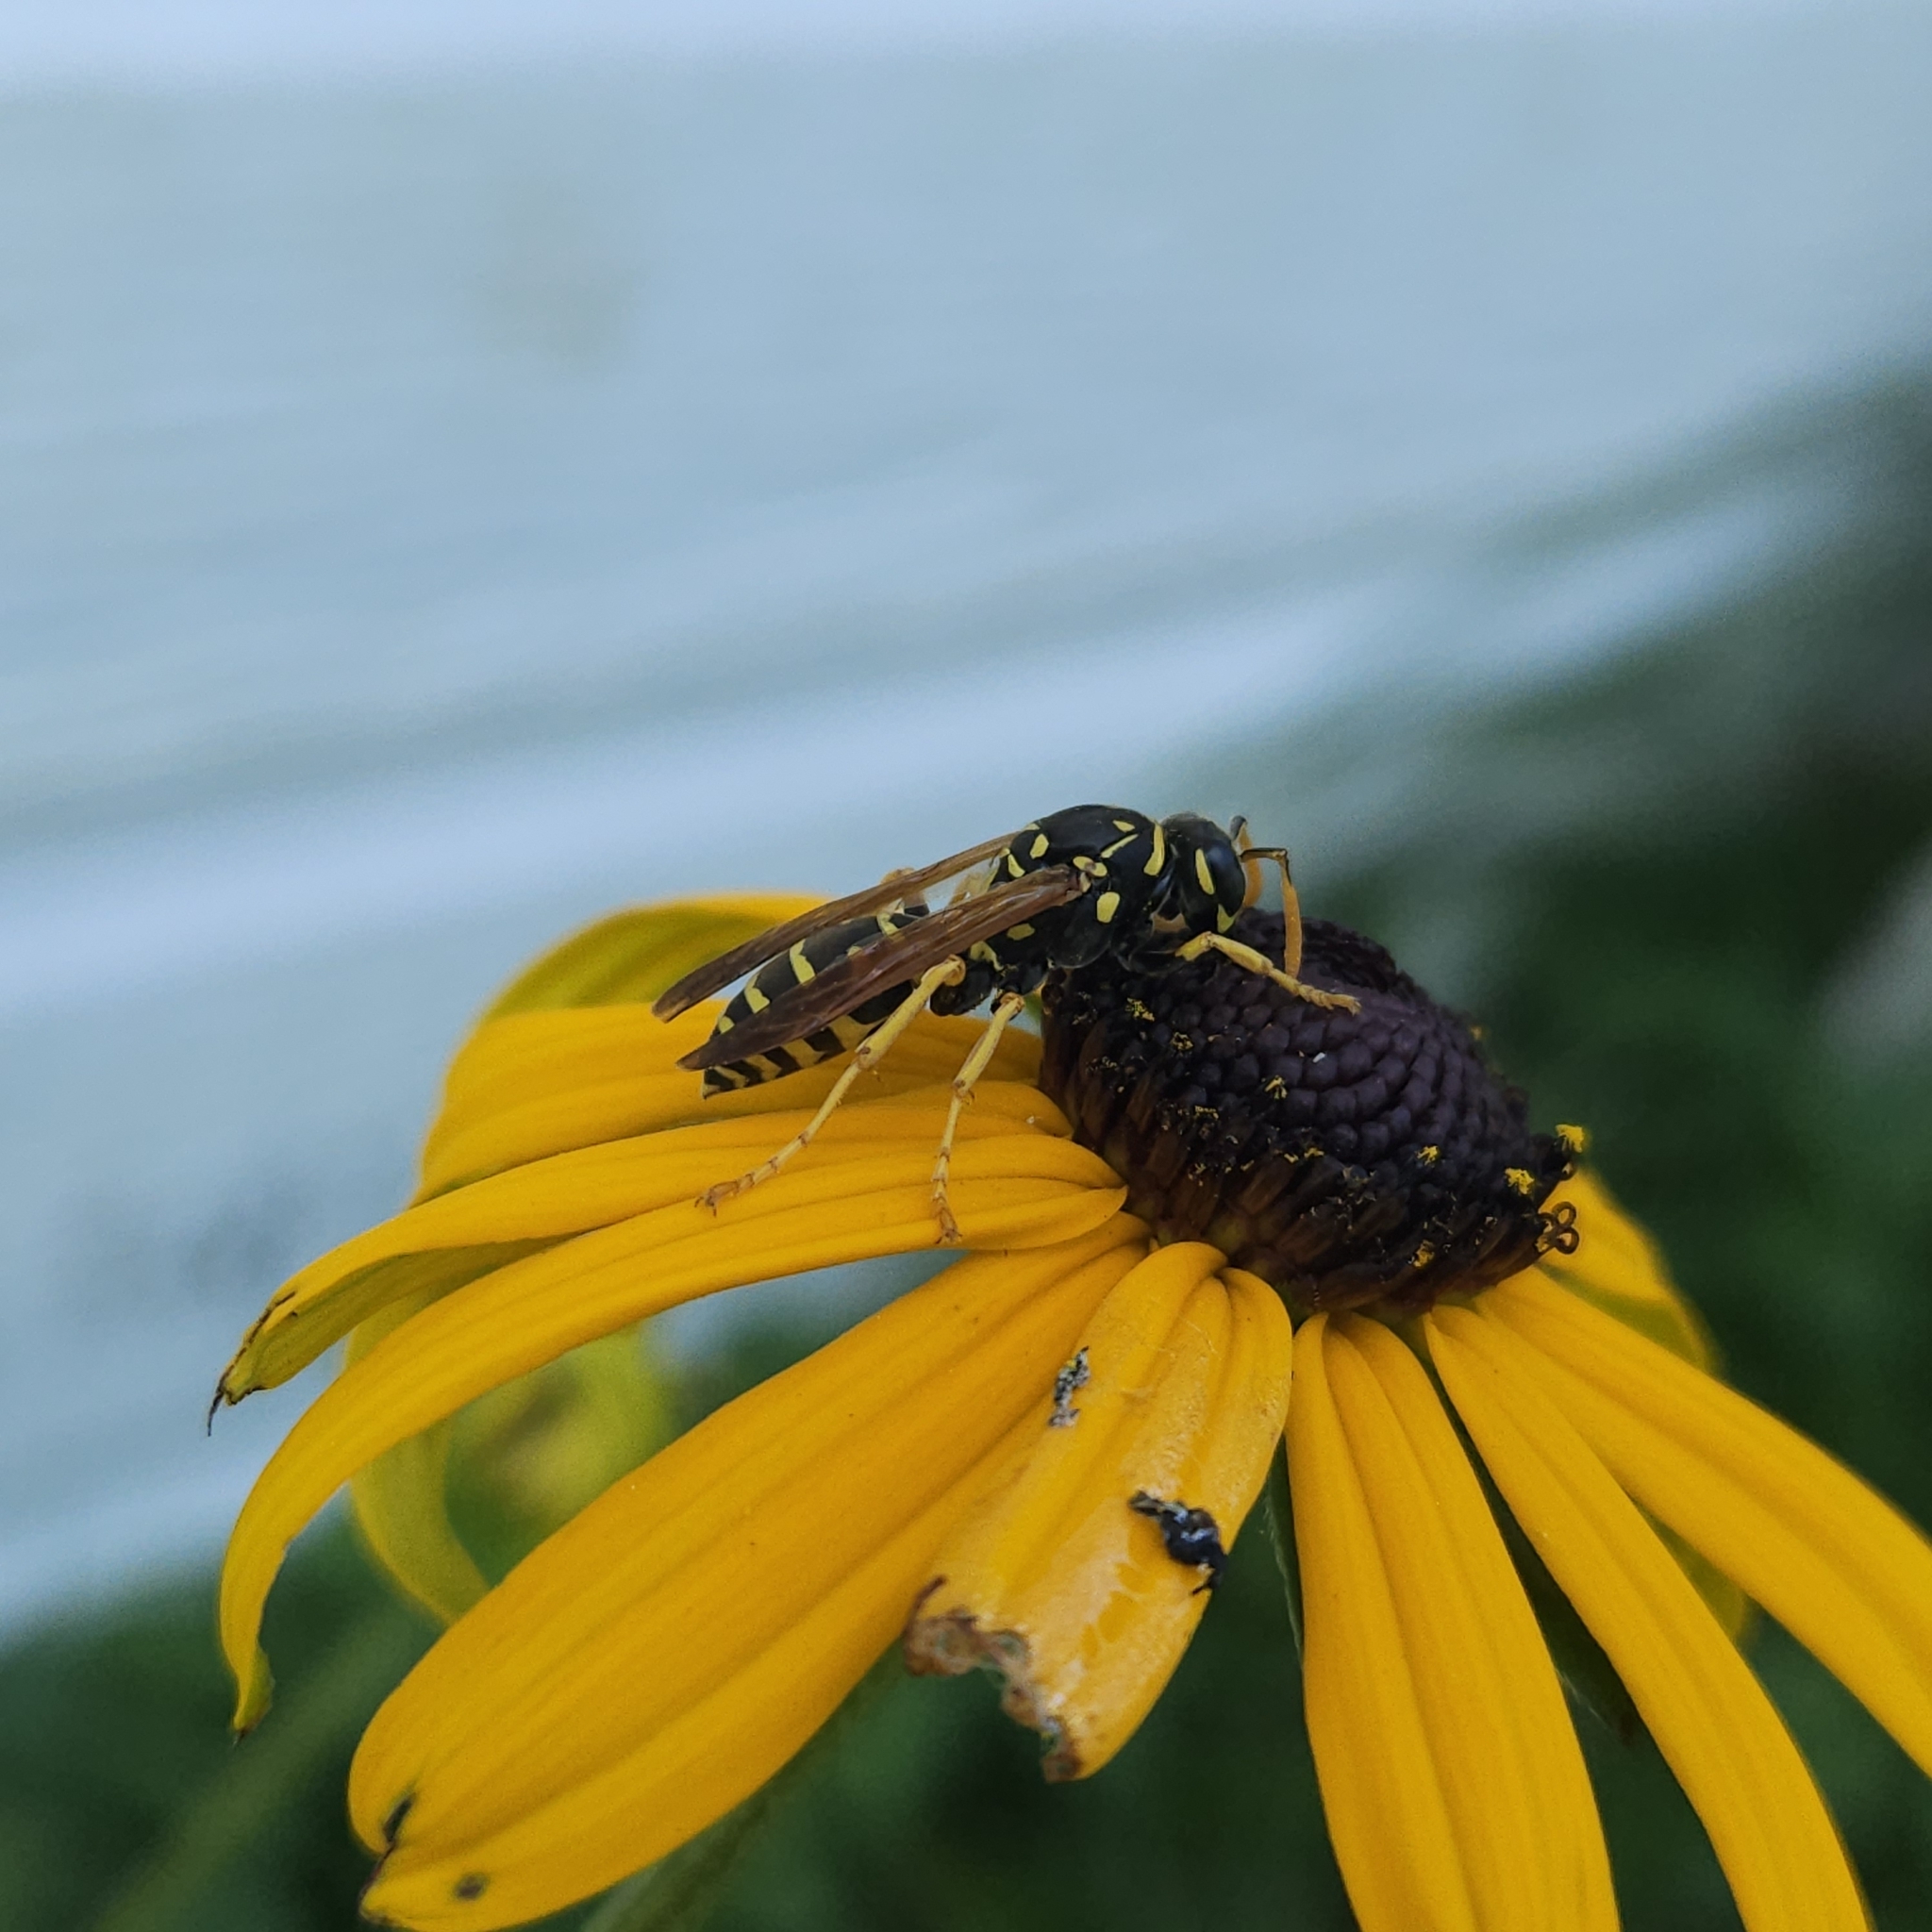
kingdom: Animalia
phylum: Arthropoda
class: Insecta
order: Hymenoptera
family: Eumenidae
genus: Polistes
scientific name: Polistes dominula
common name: Paper wasp
